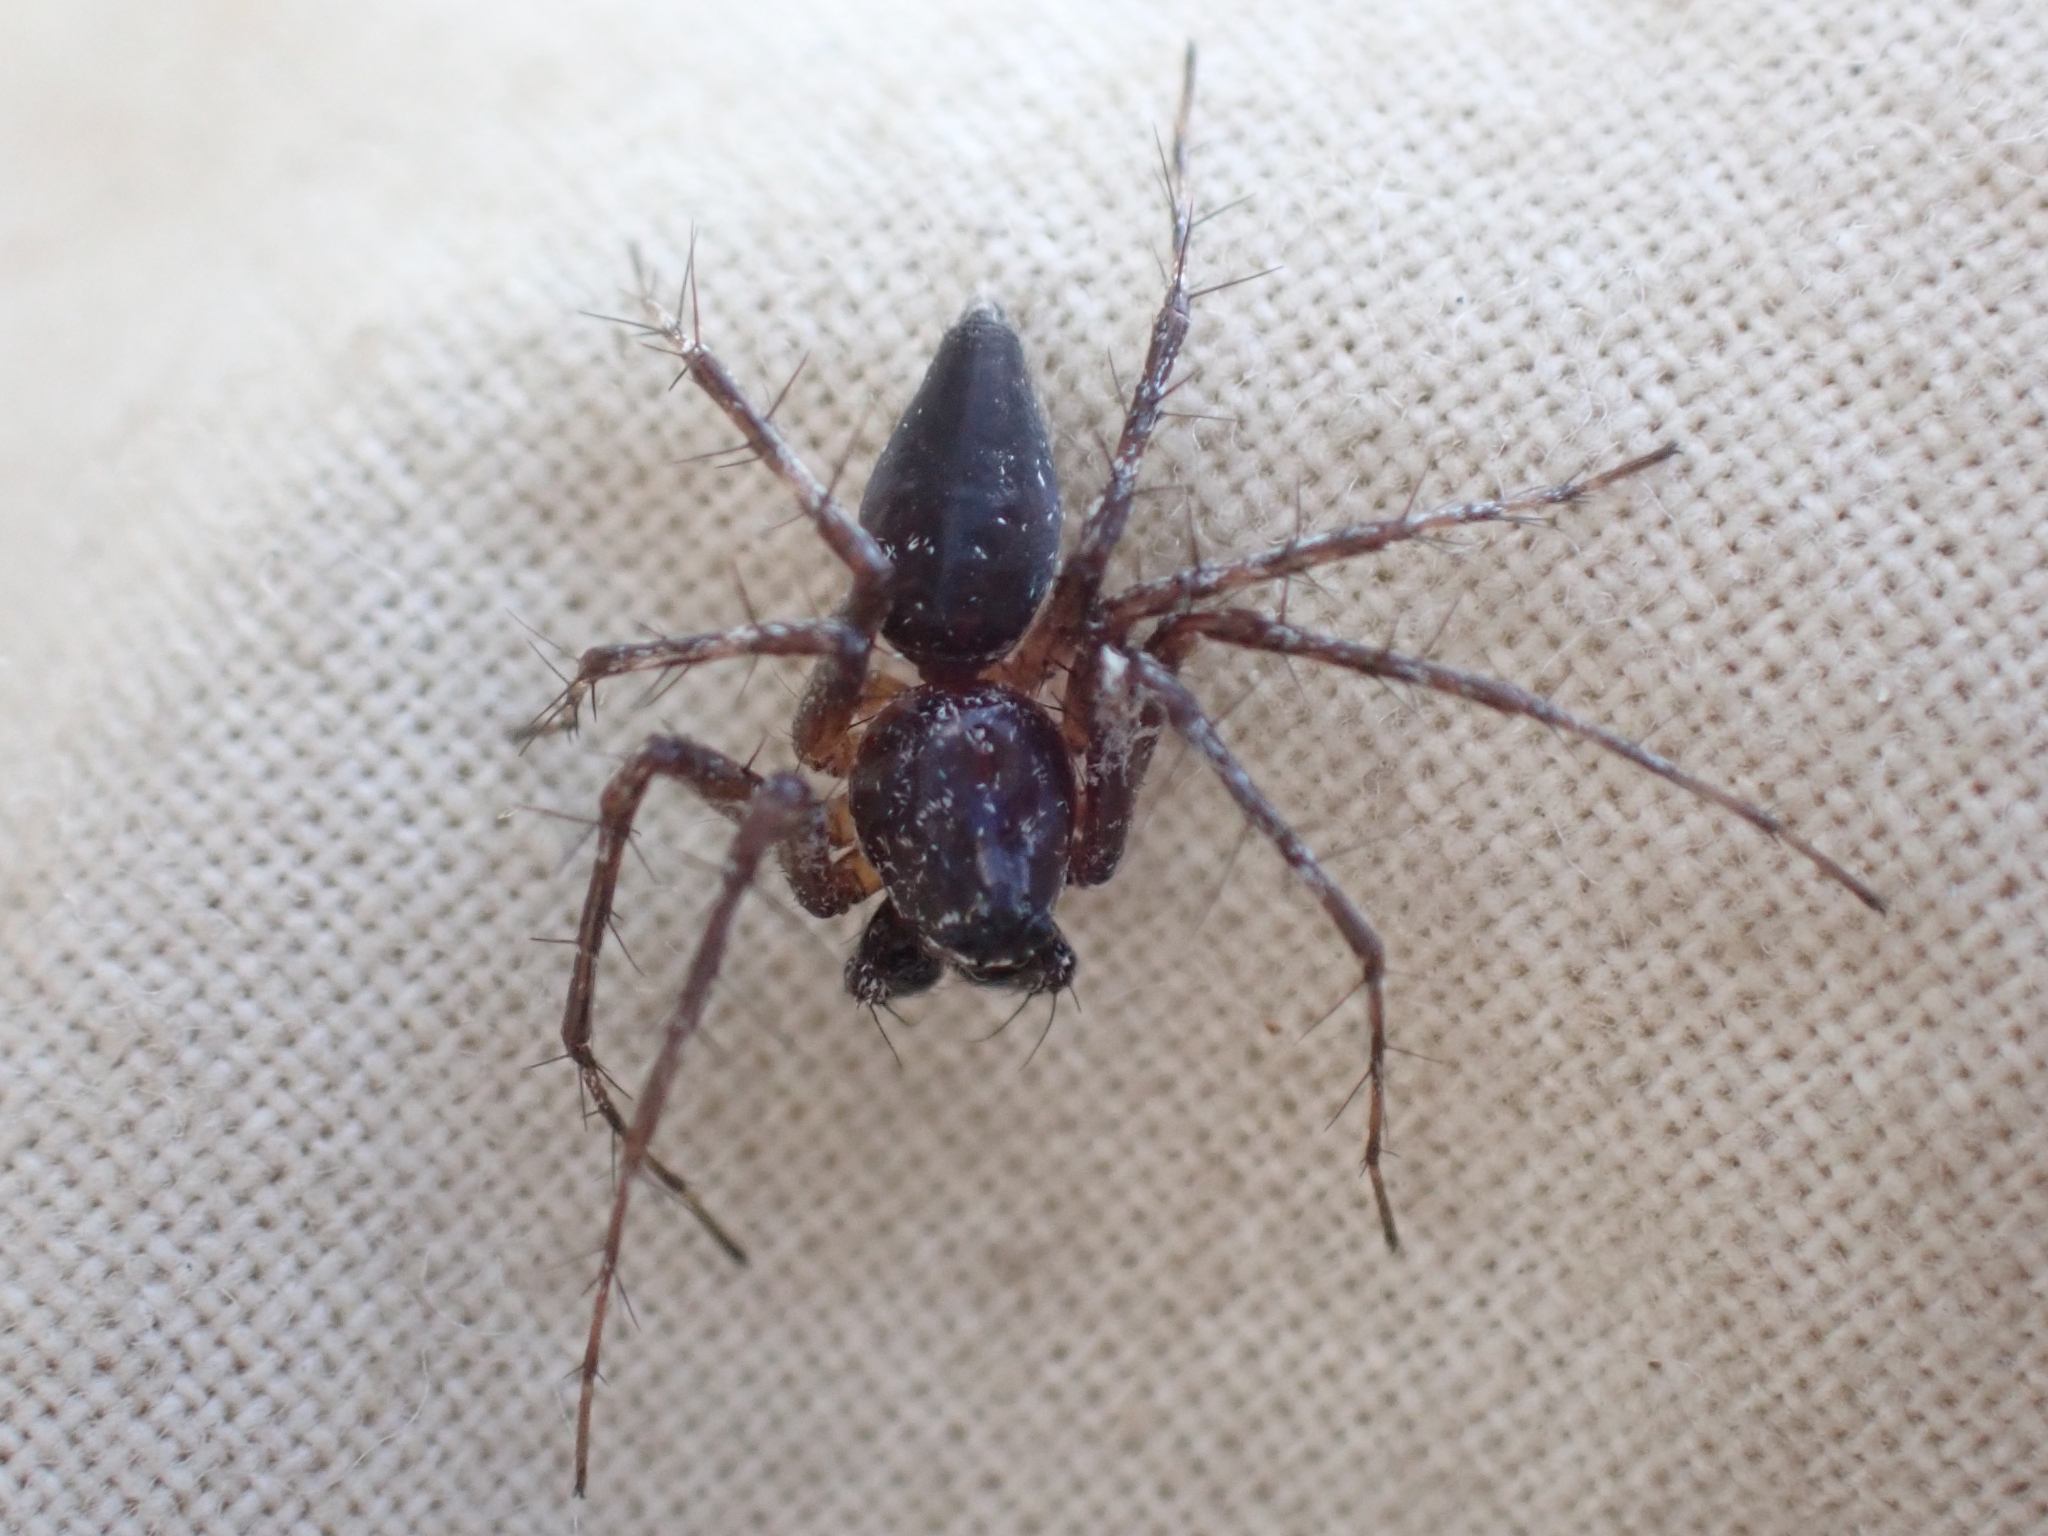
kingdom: Animalia
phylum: Arthropoda
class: Arachnida
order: Araneae
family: Oxyopidae
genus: Oxyopes
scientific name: Oxyopes scalaris
